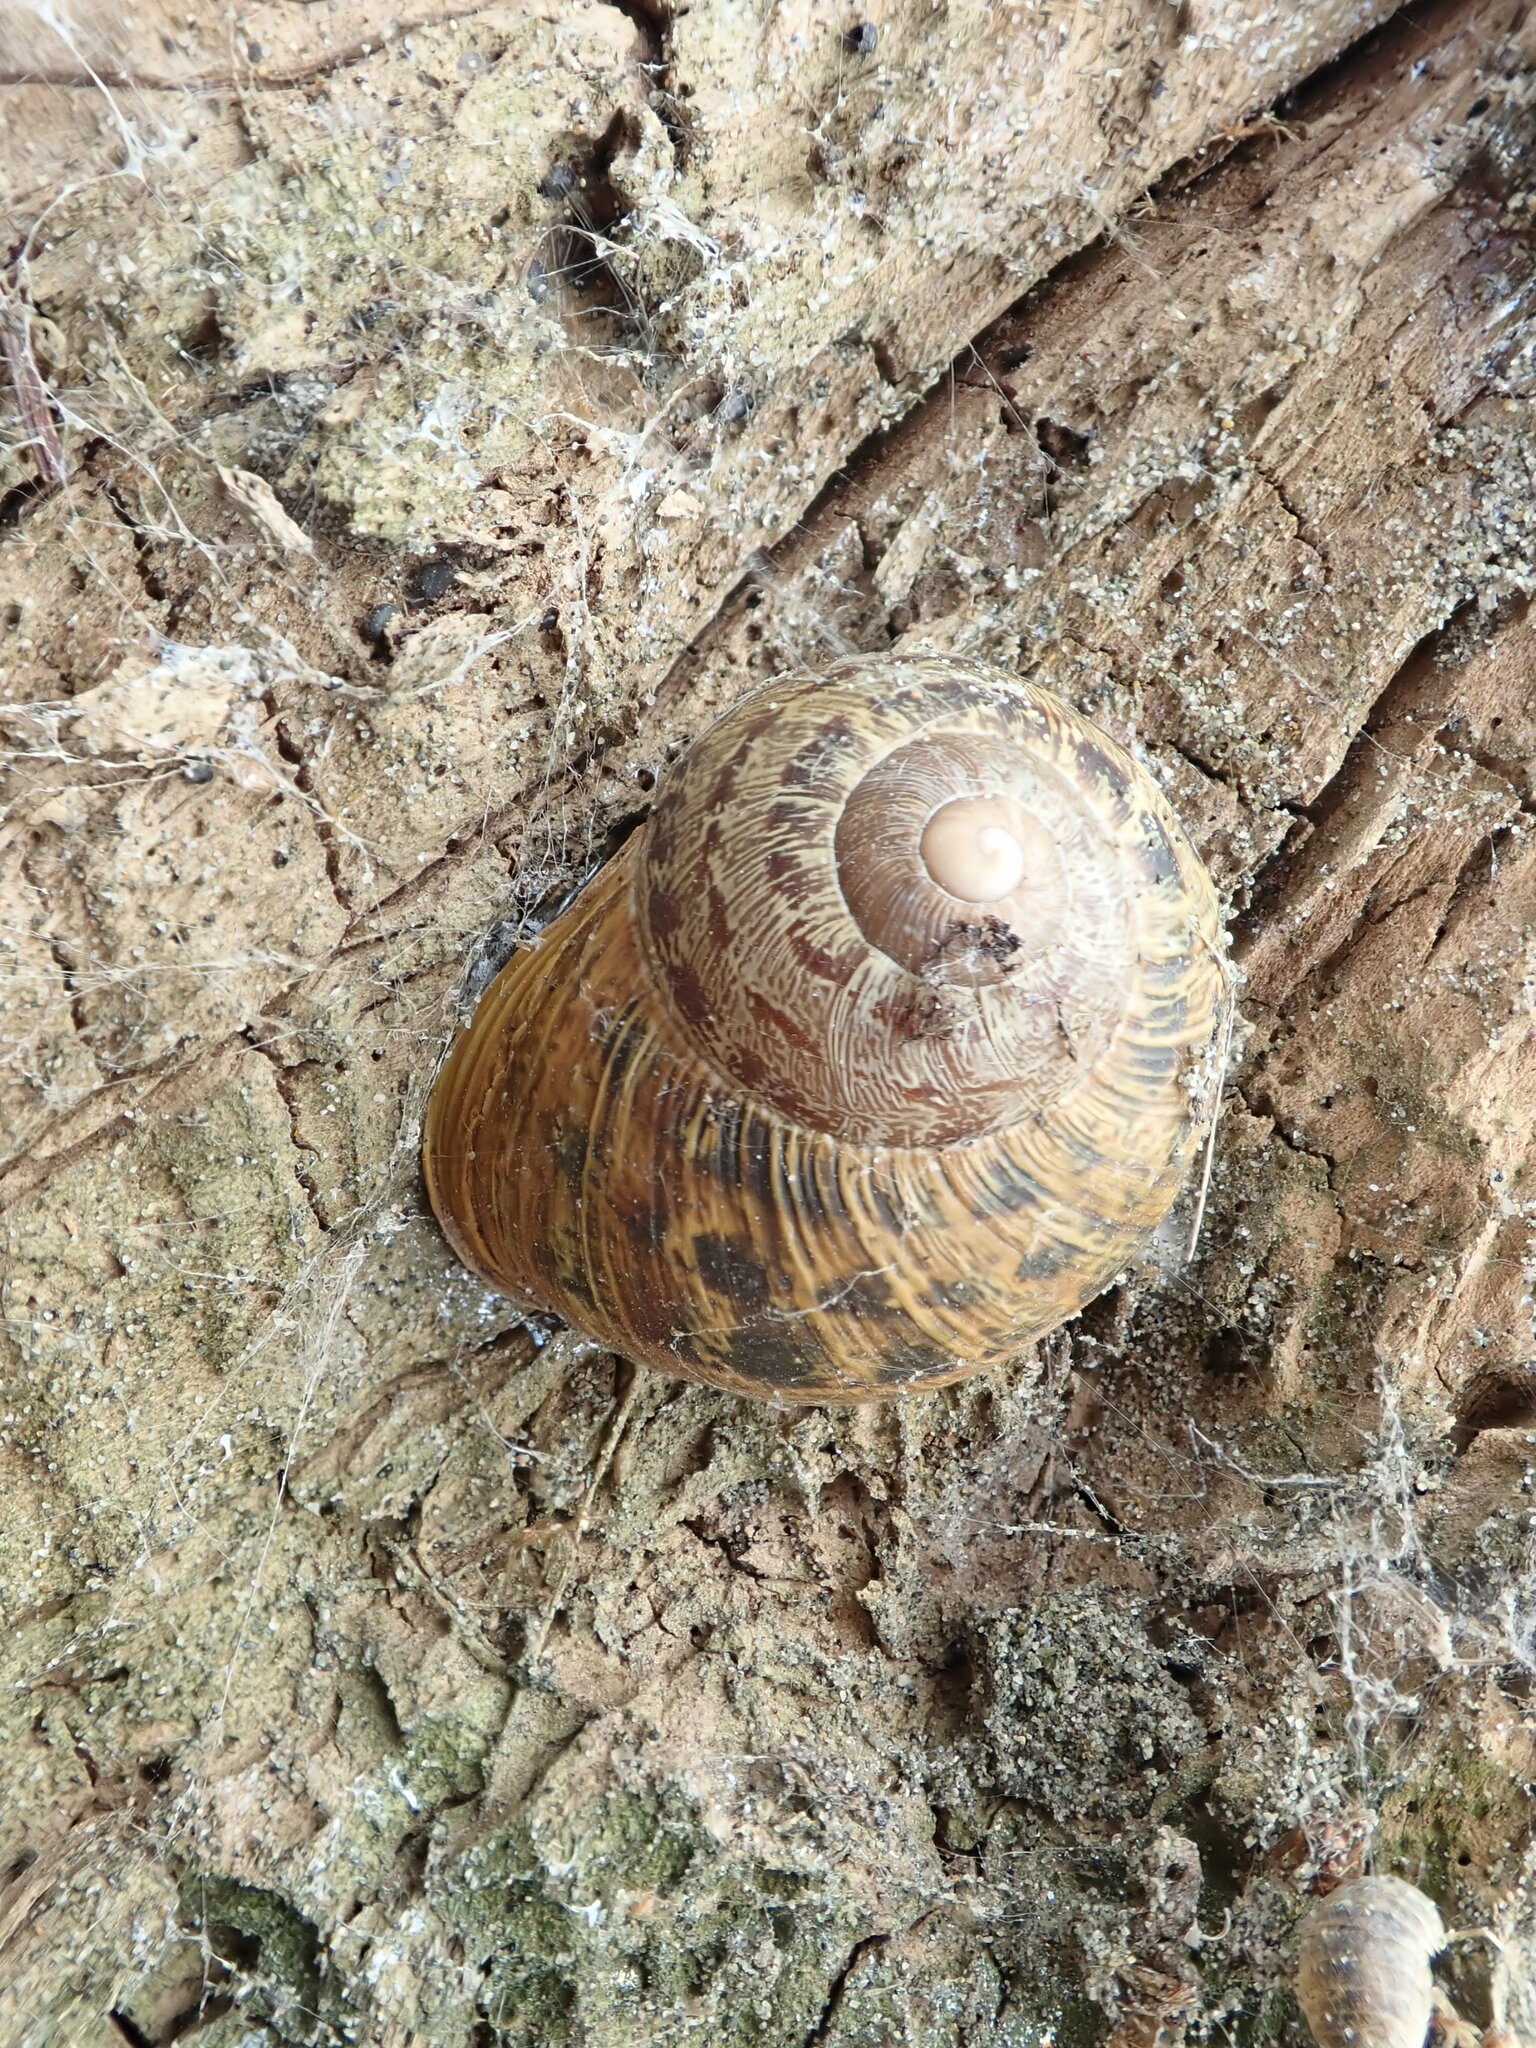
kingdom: Animalia
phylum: Mollusca
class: Gastropoda
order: Stylommatophora
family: Helicidae
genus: Cornu
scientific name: Cornu aspersum
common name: Brown garden snail
